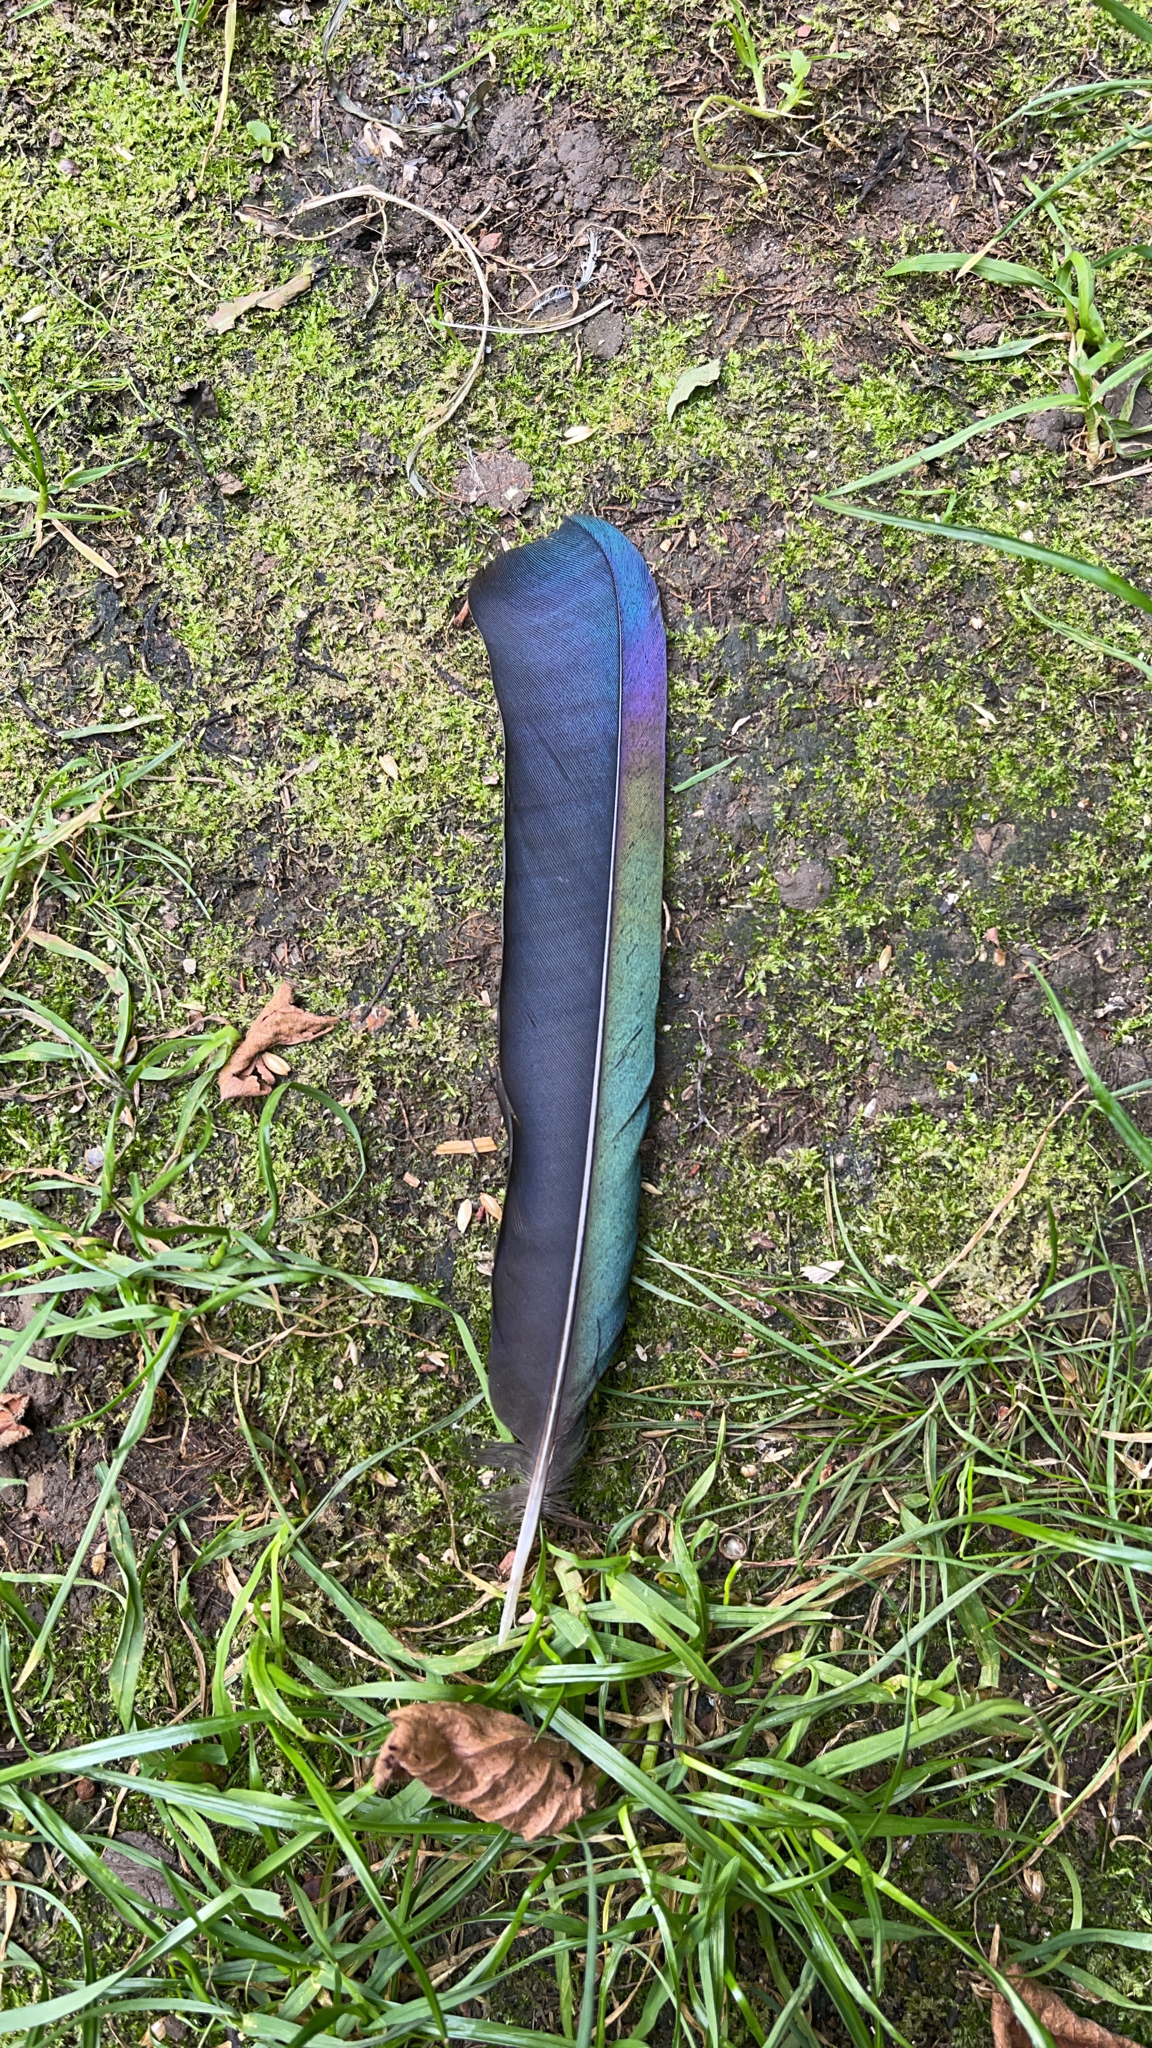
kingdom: Animalia
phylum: Chordata
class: Aves
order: Passeriformes
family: Corvidae
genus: Pica
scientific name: Pica pica
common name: Eurasian magpie
